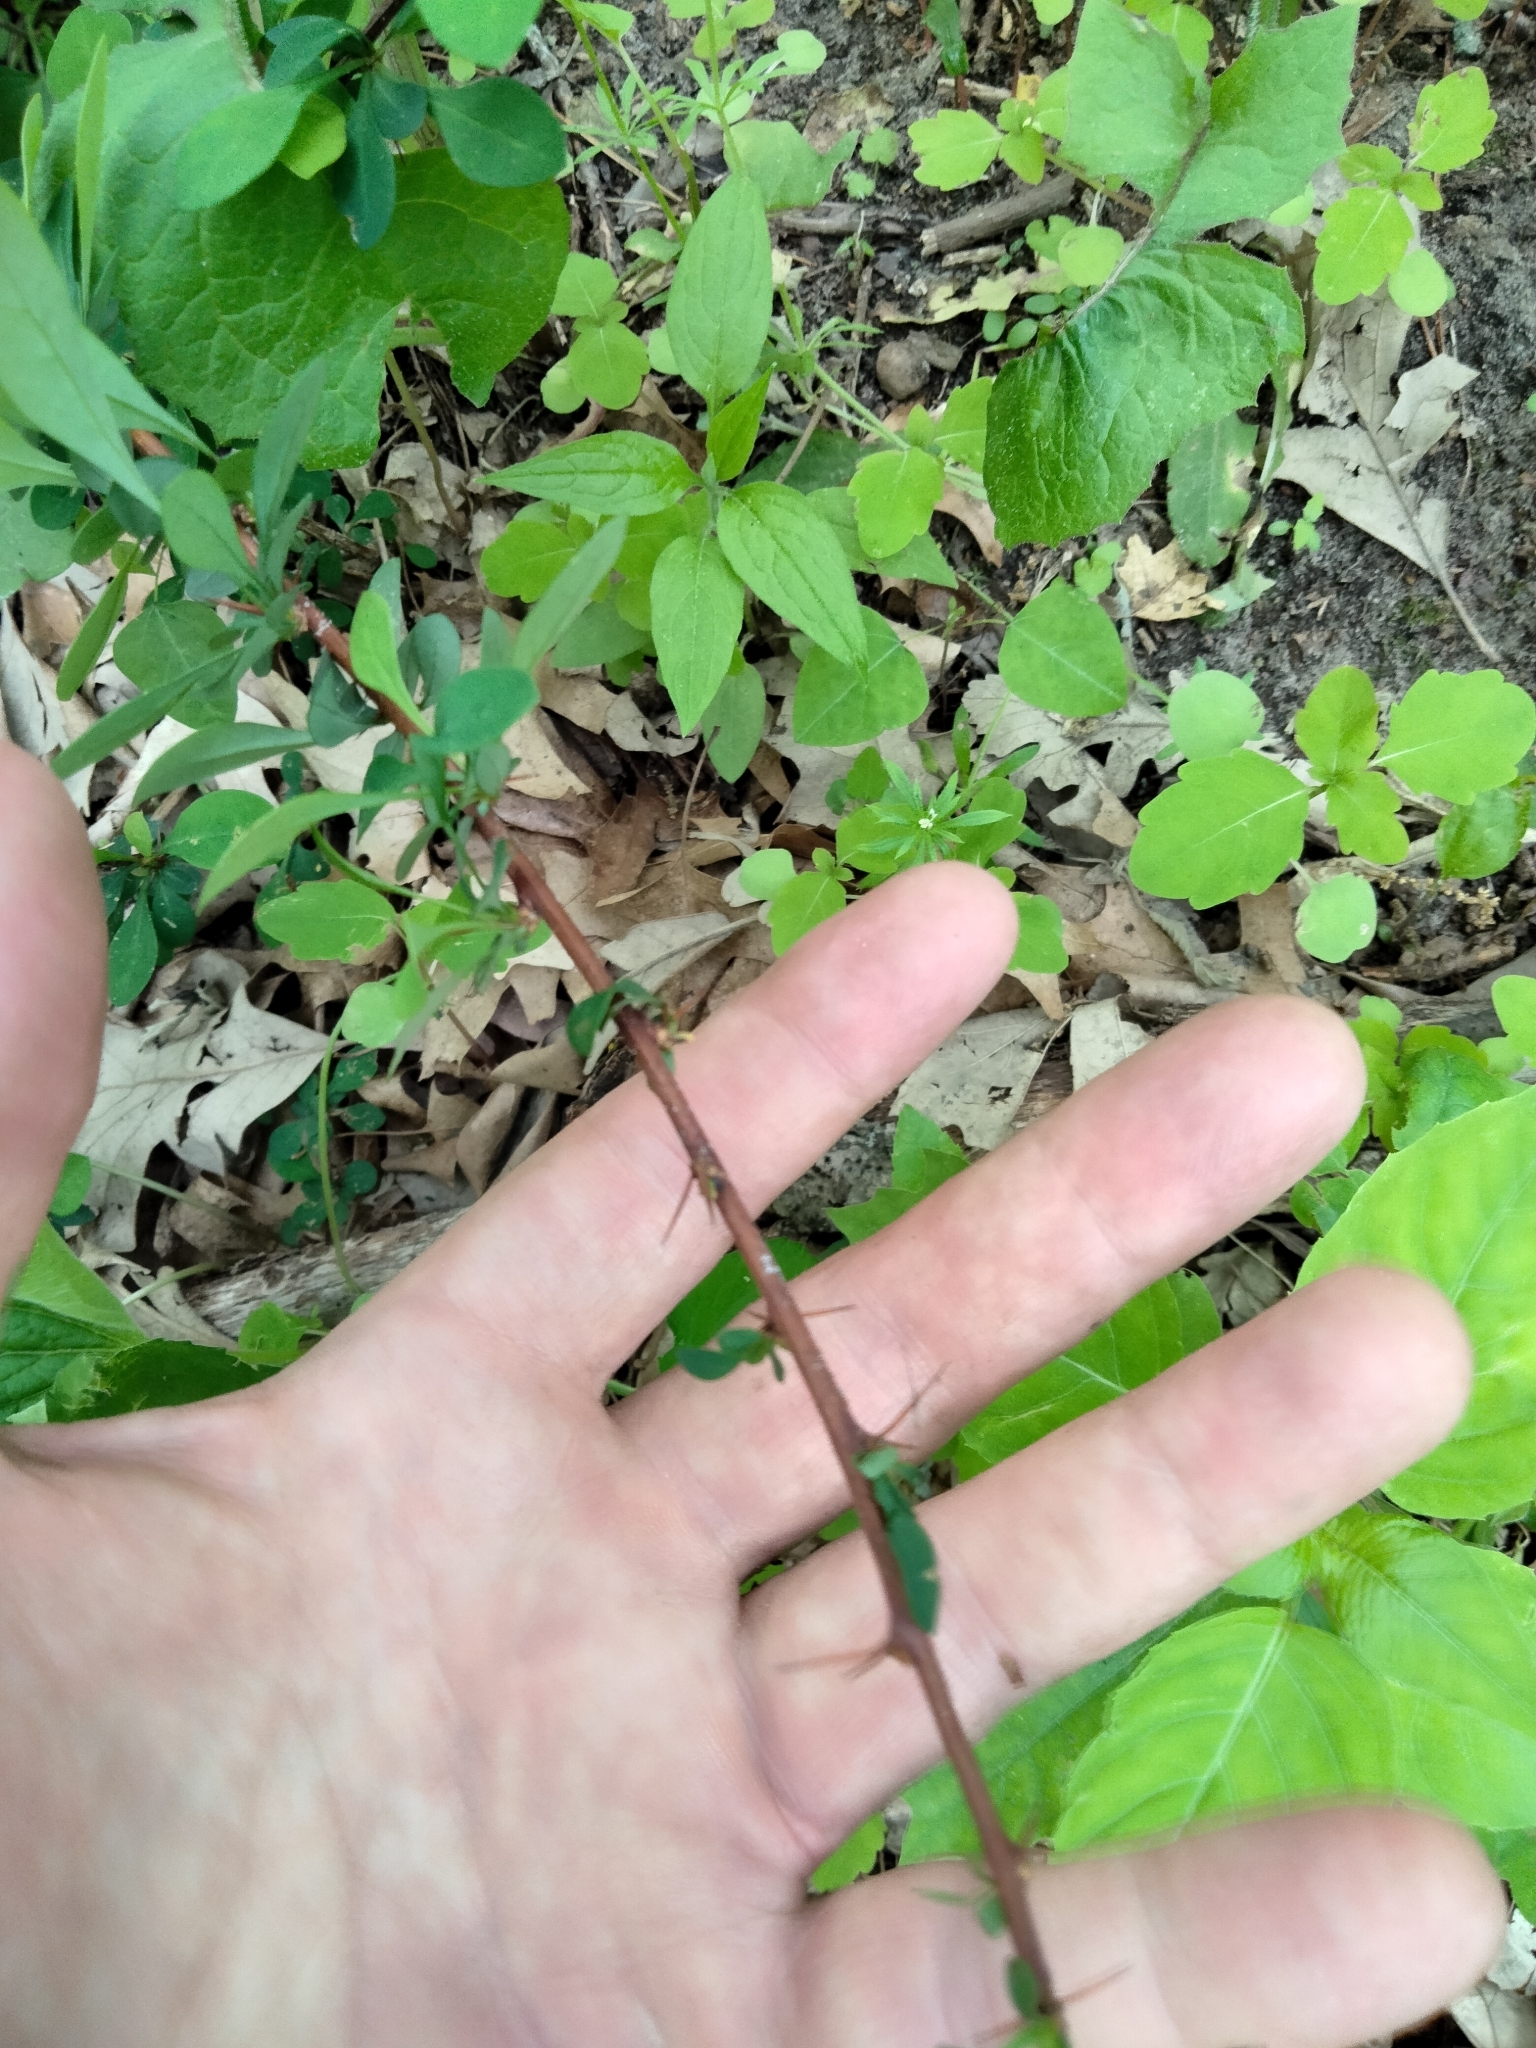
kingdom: Plantae
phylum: Tracheophyta
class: Magnoliopsida
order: Ranunculales
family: Berberidaceae
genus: Berberis
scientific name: Berberis thunbergii
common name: Japanese barberry
